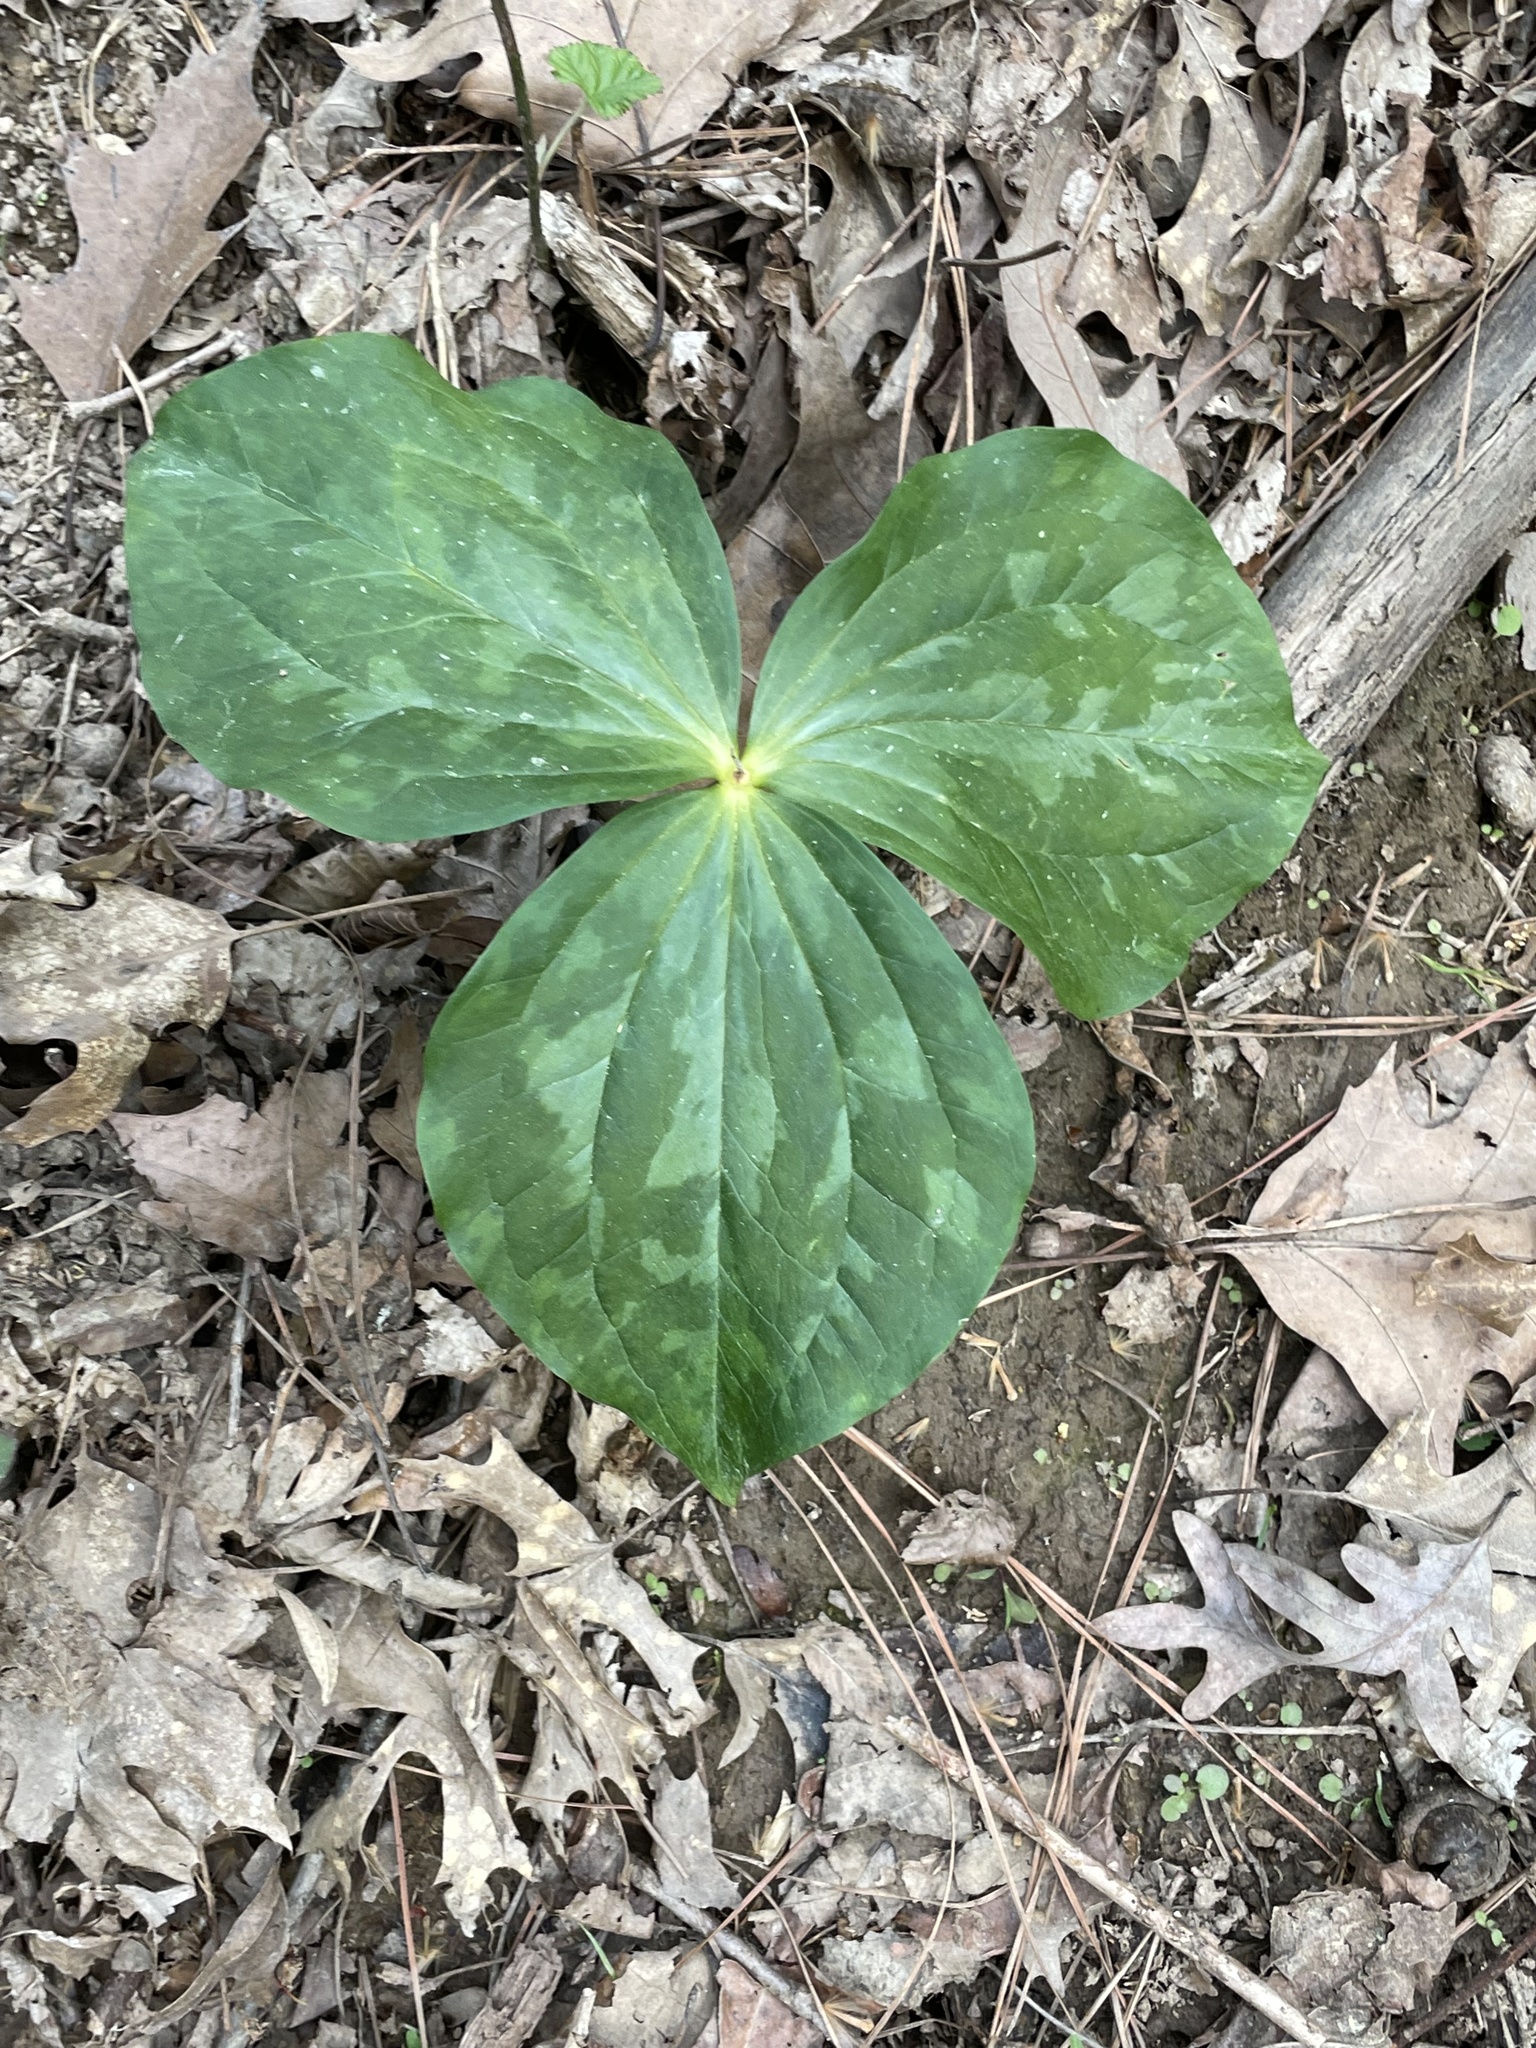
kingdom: Plantae
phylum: Tracheophyta
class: Liliopsida
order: Liliales
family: Melanthiaceae
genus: Trillium
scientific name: Trillium cuneatum
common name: Cuneate trillium
